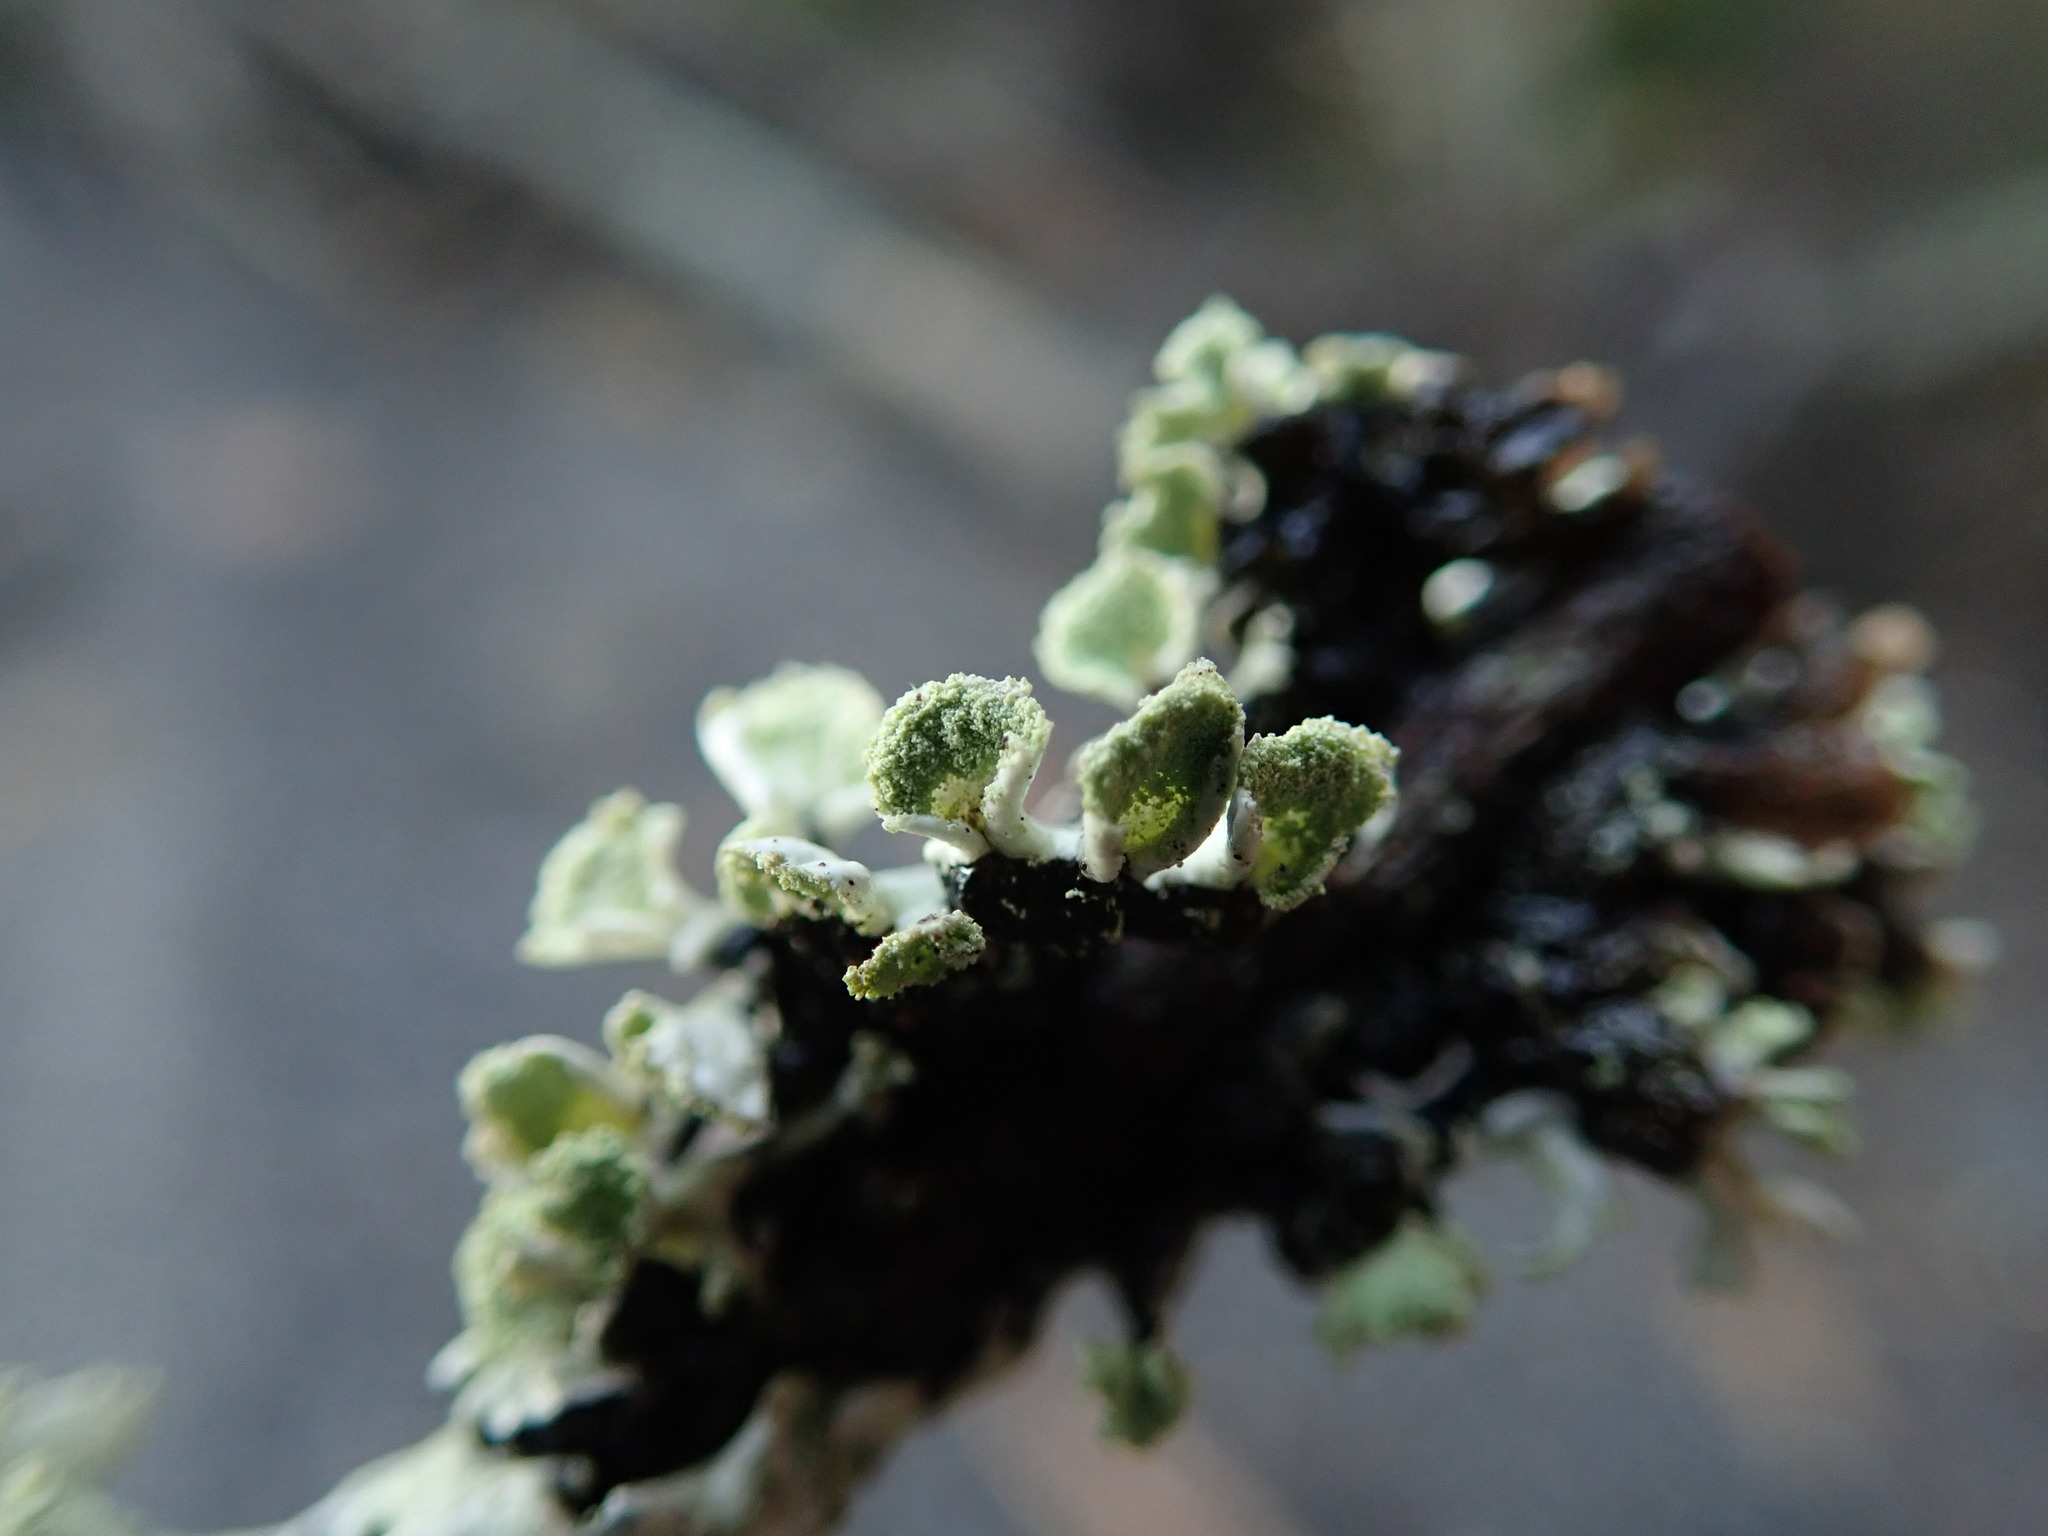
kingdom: Fungi
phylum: Ascomycota
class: Lecanoromycetes
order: Lecanorales
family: Parmeliaceae
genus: Hypogymnia
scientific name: Hypogymnia physodes
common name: Dark crottle
